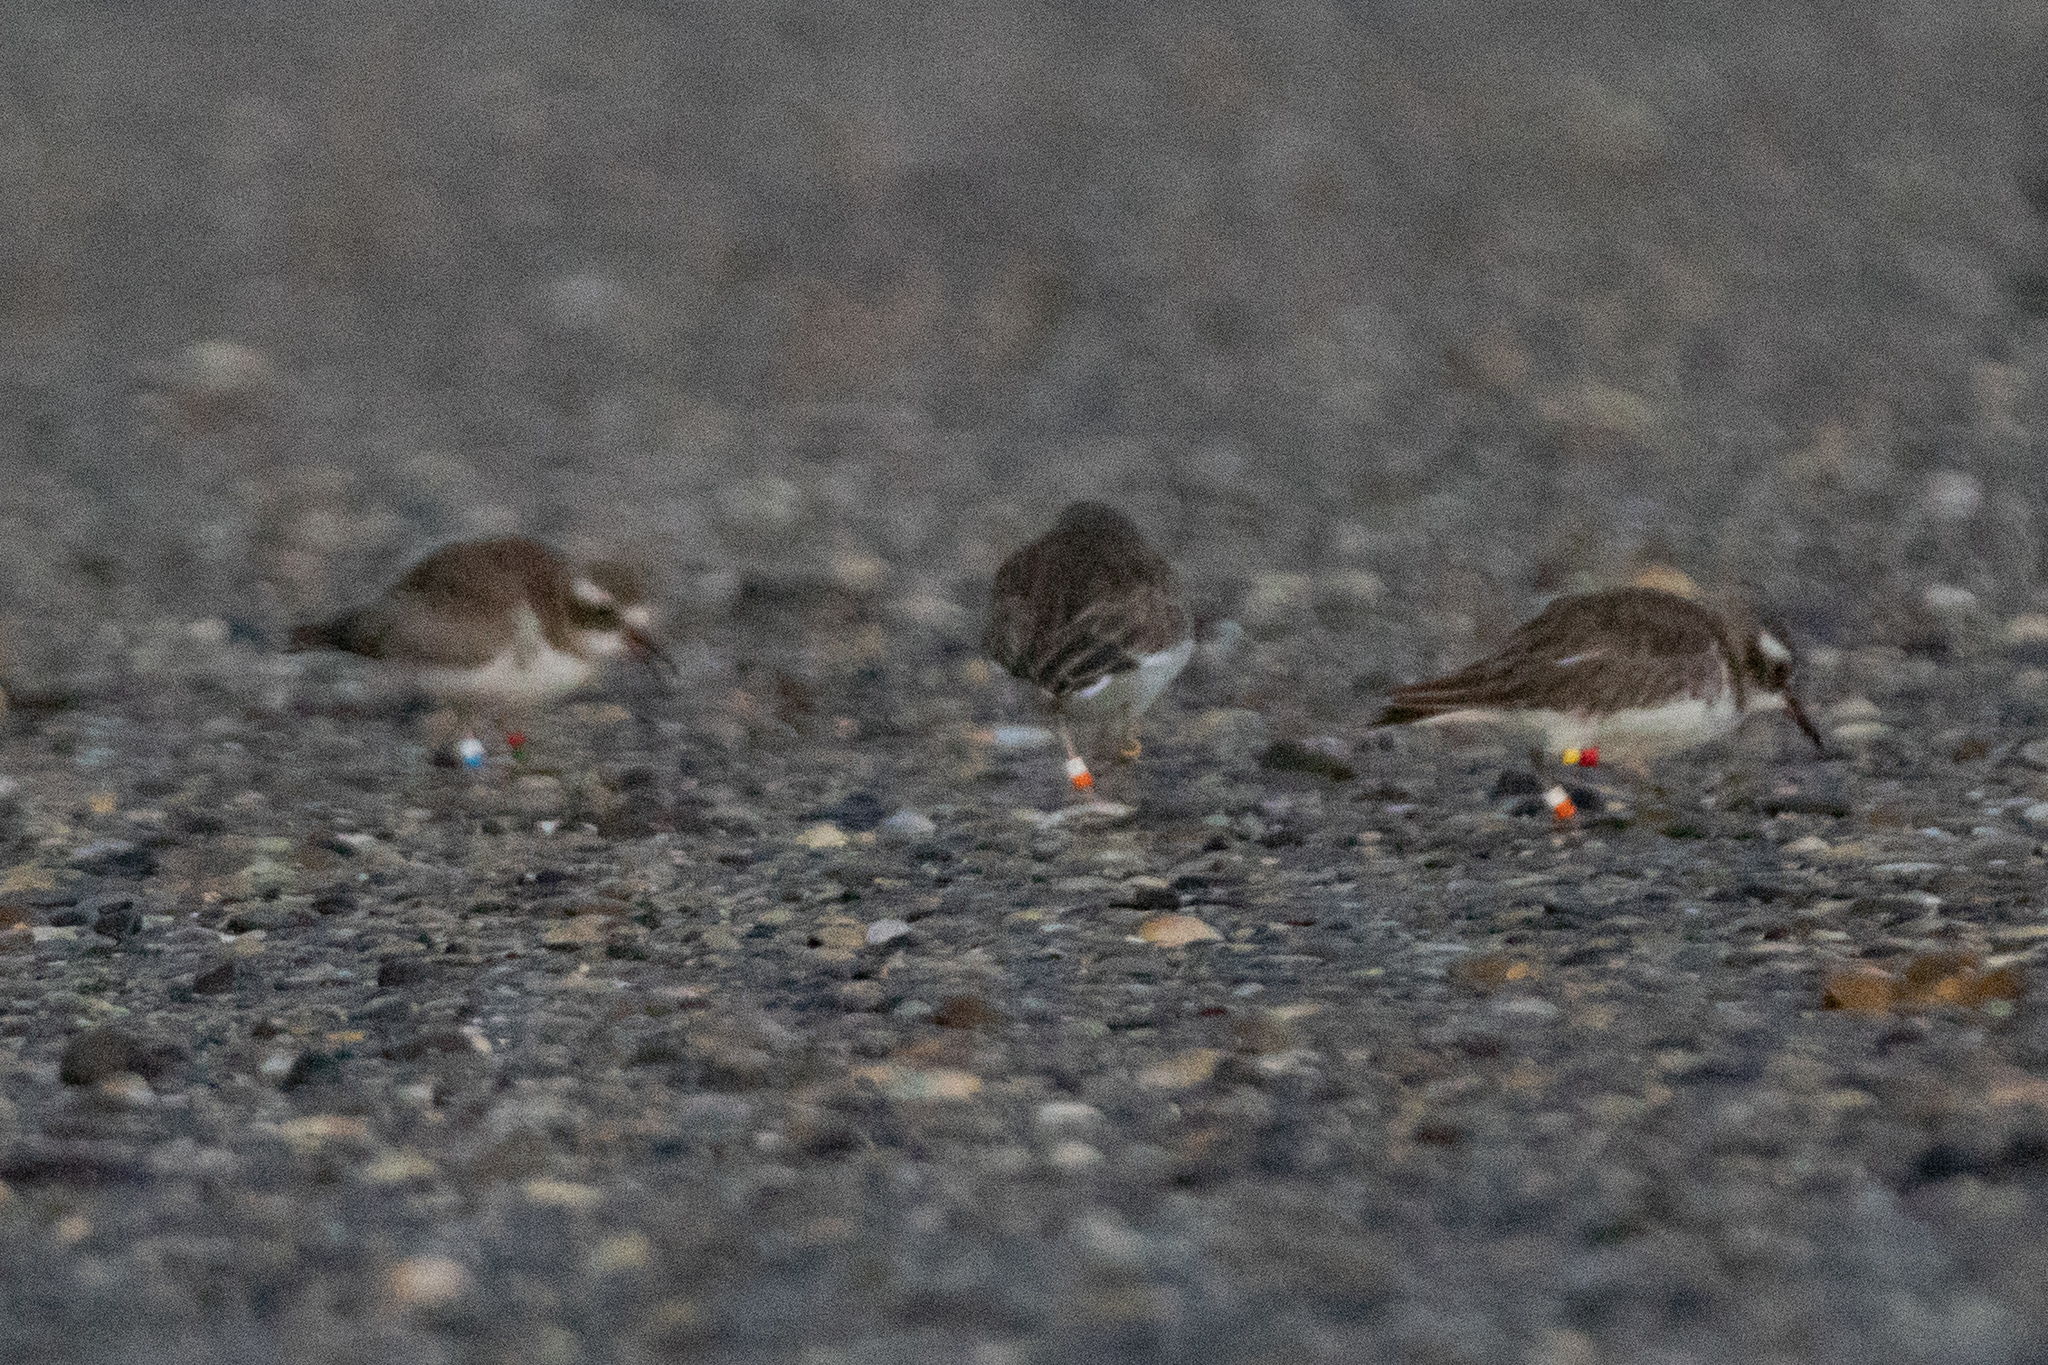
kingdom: Animalia
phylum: Chordata
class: Aves
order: Charadriiformes
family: Charadriidae
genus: Thinornis
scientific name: Thinornis novaeseelandiae
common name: Shore dotterel
